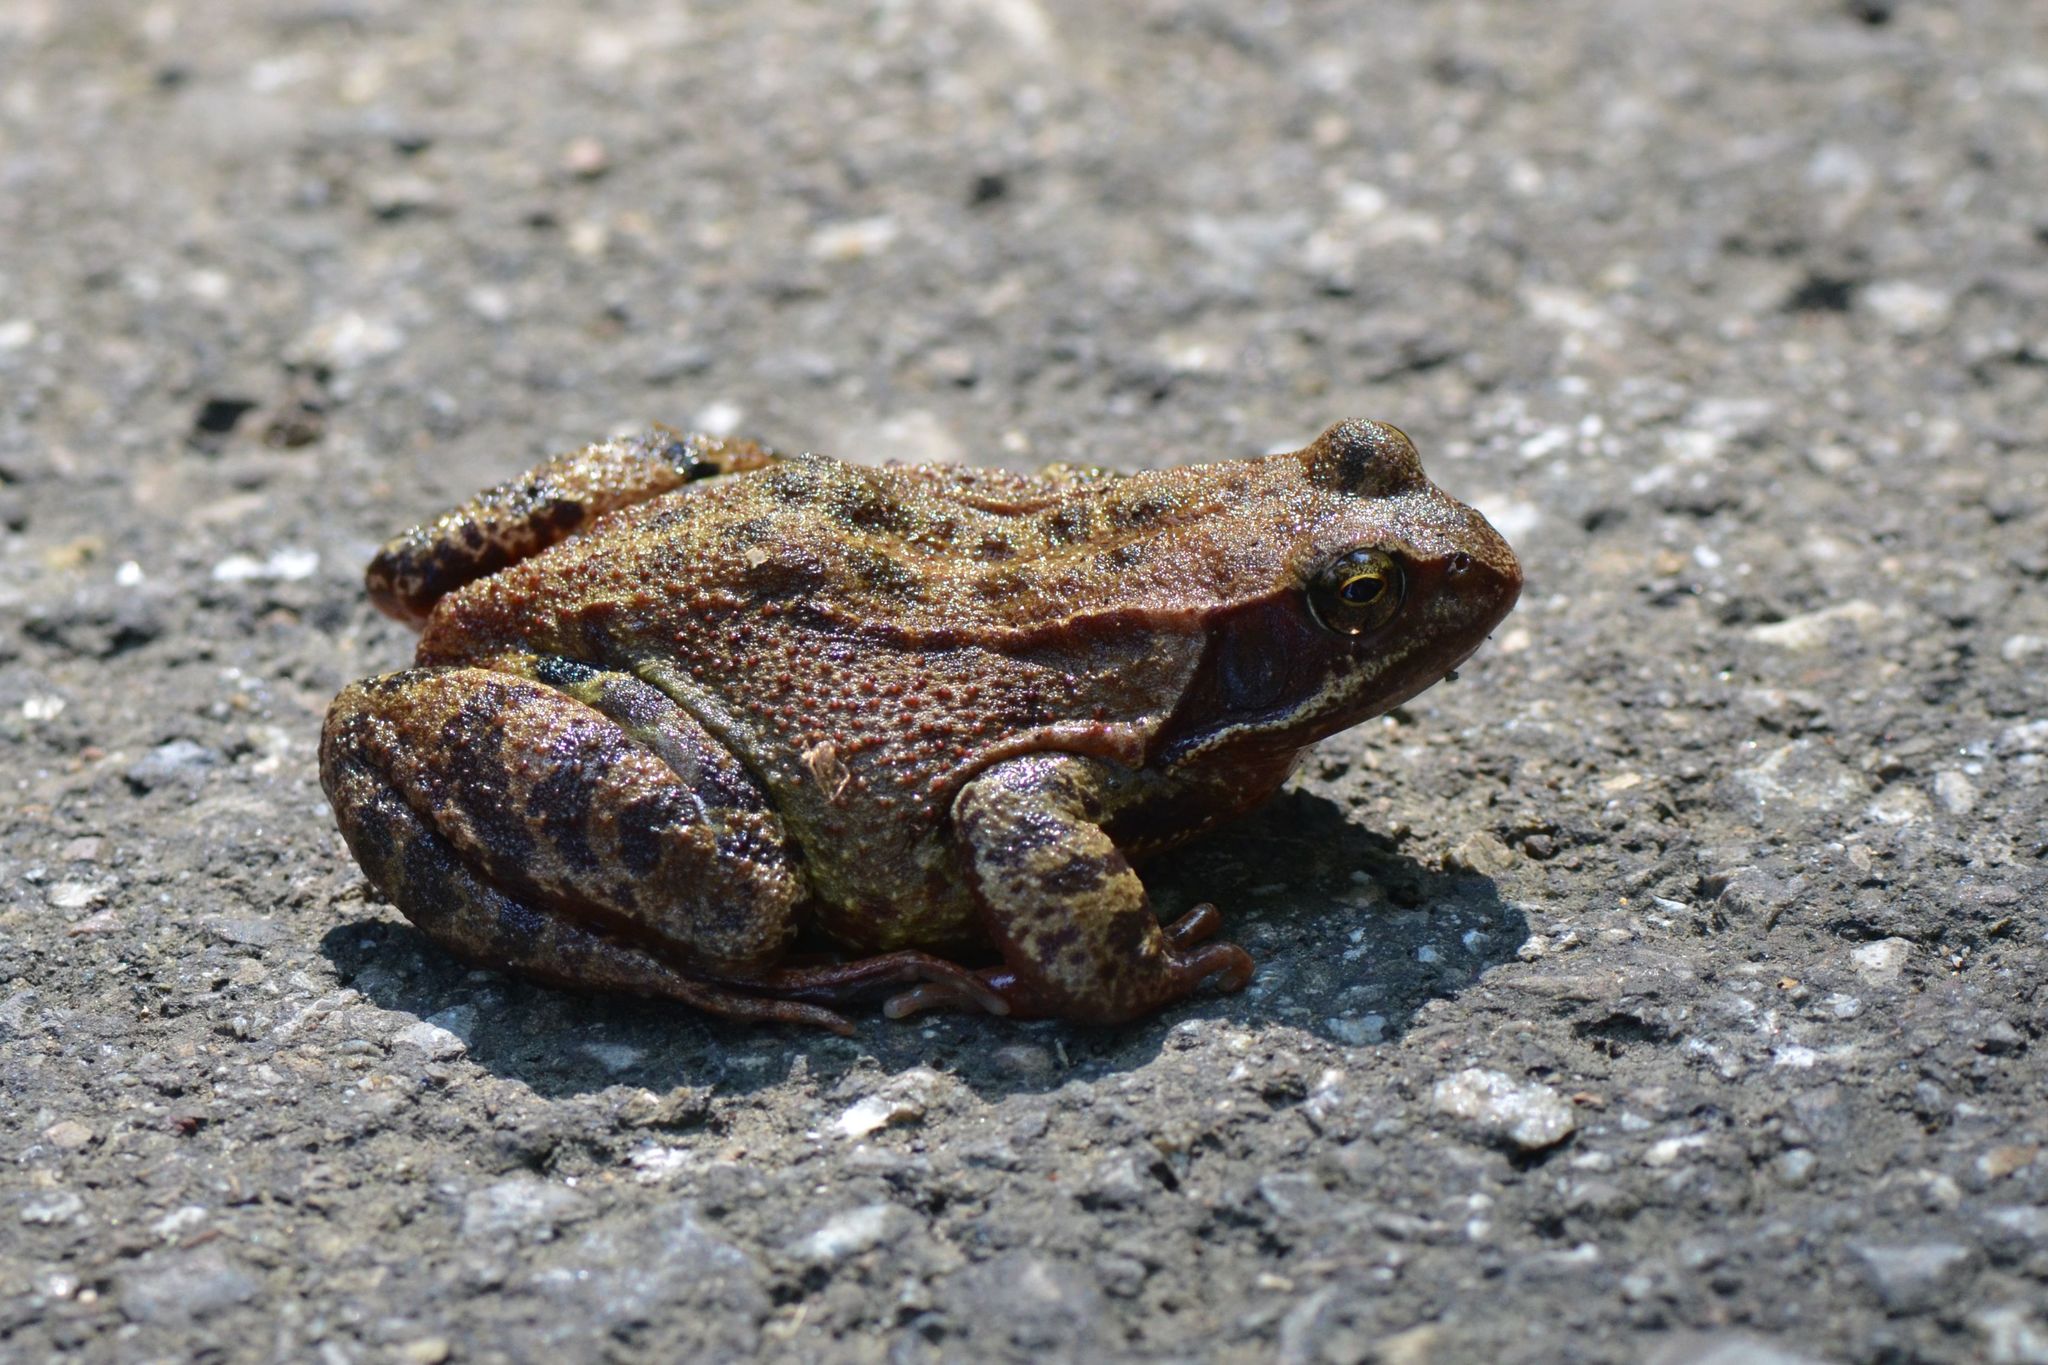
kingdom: Animalia
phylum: Chordata
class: Amphibia
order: Anura
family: Ranidae
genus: Rana
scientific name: Rana temporaria
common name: Common frog
